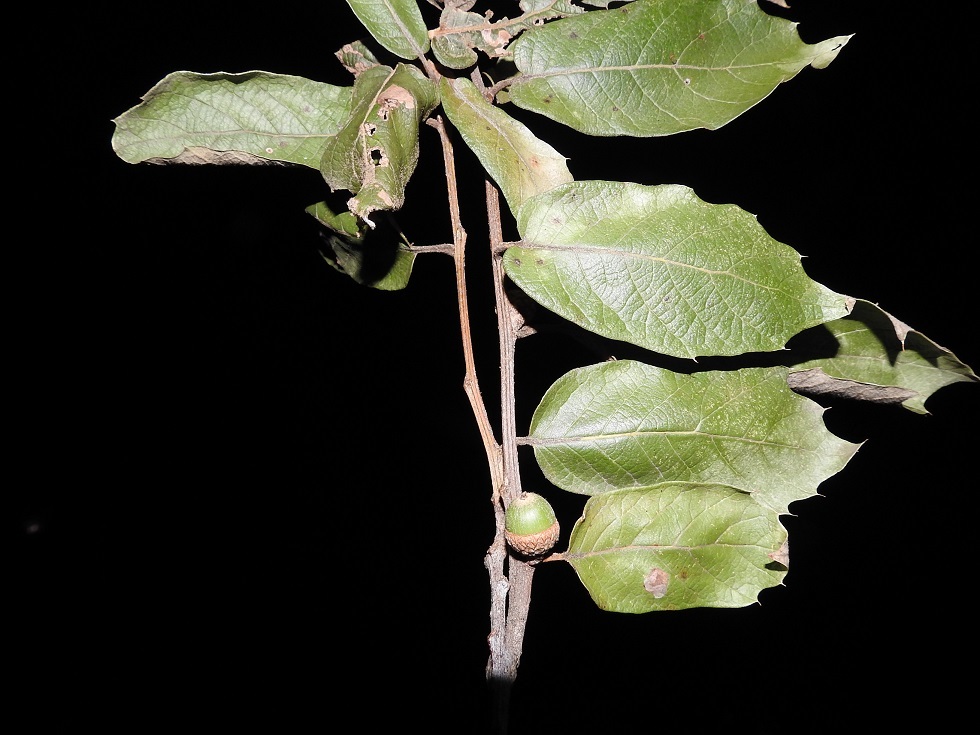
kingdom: Plantae
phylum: Tracheophyta
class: Magnoliopsida
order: Fagales
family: Fagaceae
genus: Quercus
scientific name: Quercus crassifolia
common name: Leather leaf mexican oak
